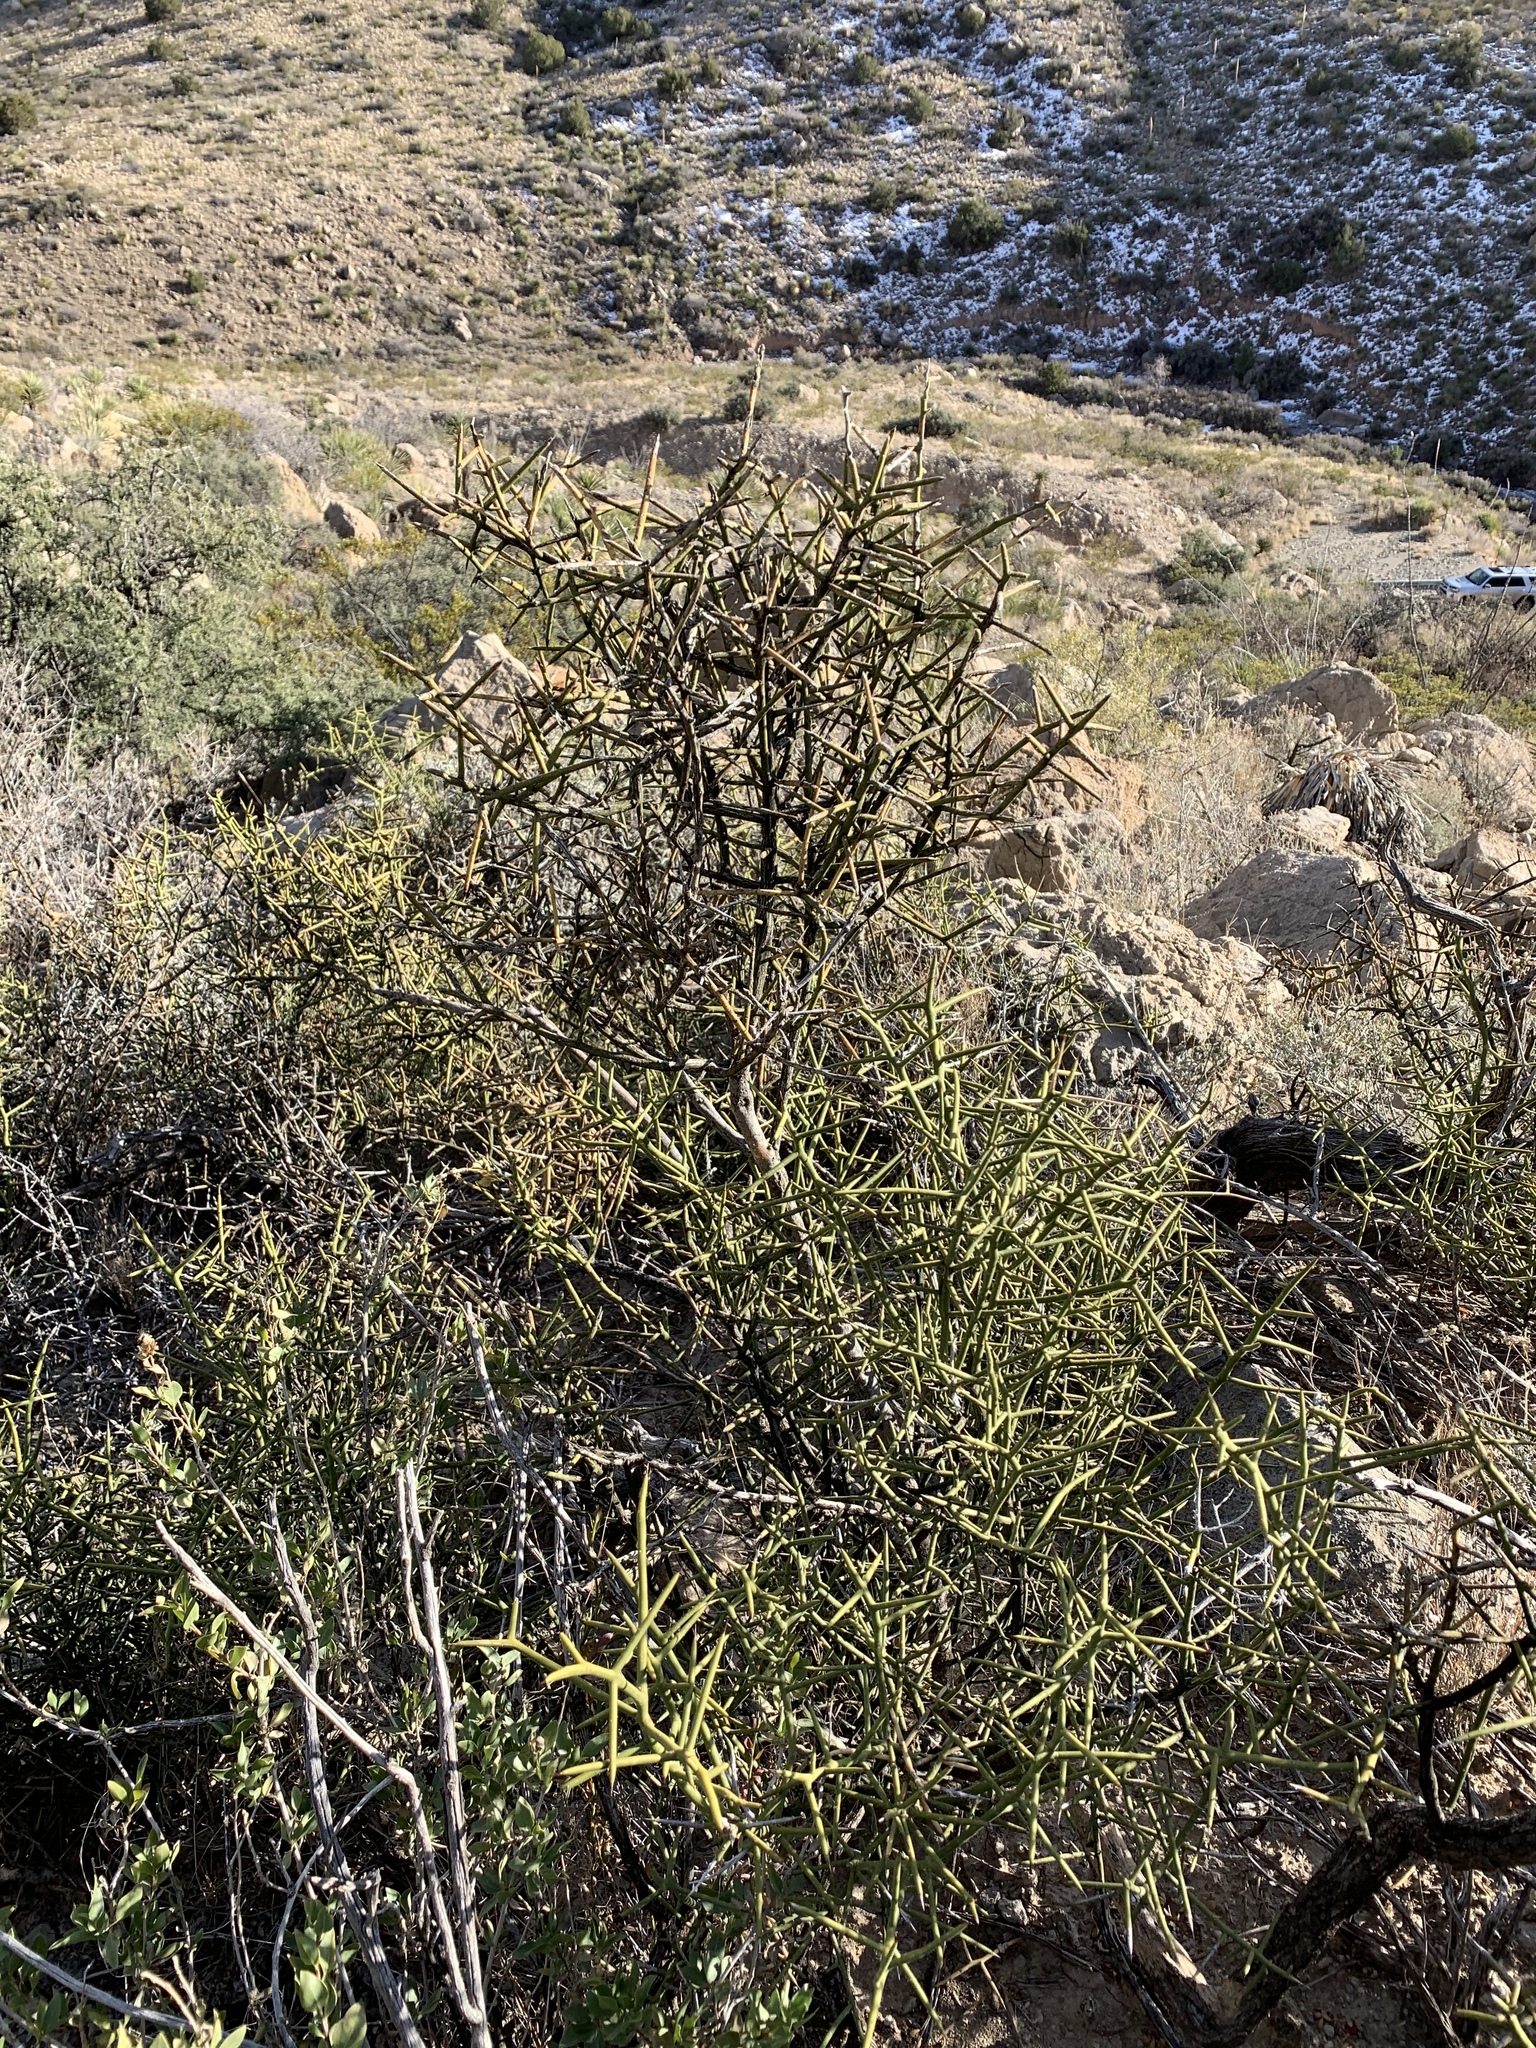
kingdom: Plantae
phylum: Tracheophyta
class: Magnoliopsida
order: Brassicales
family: Koeberliniaceae
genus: Koeberlinia
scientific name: Koeberlinia spinosa
